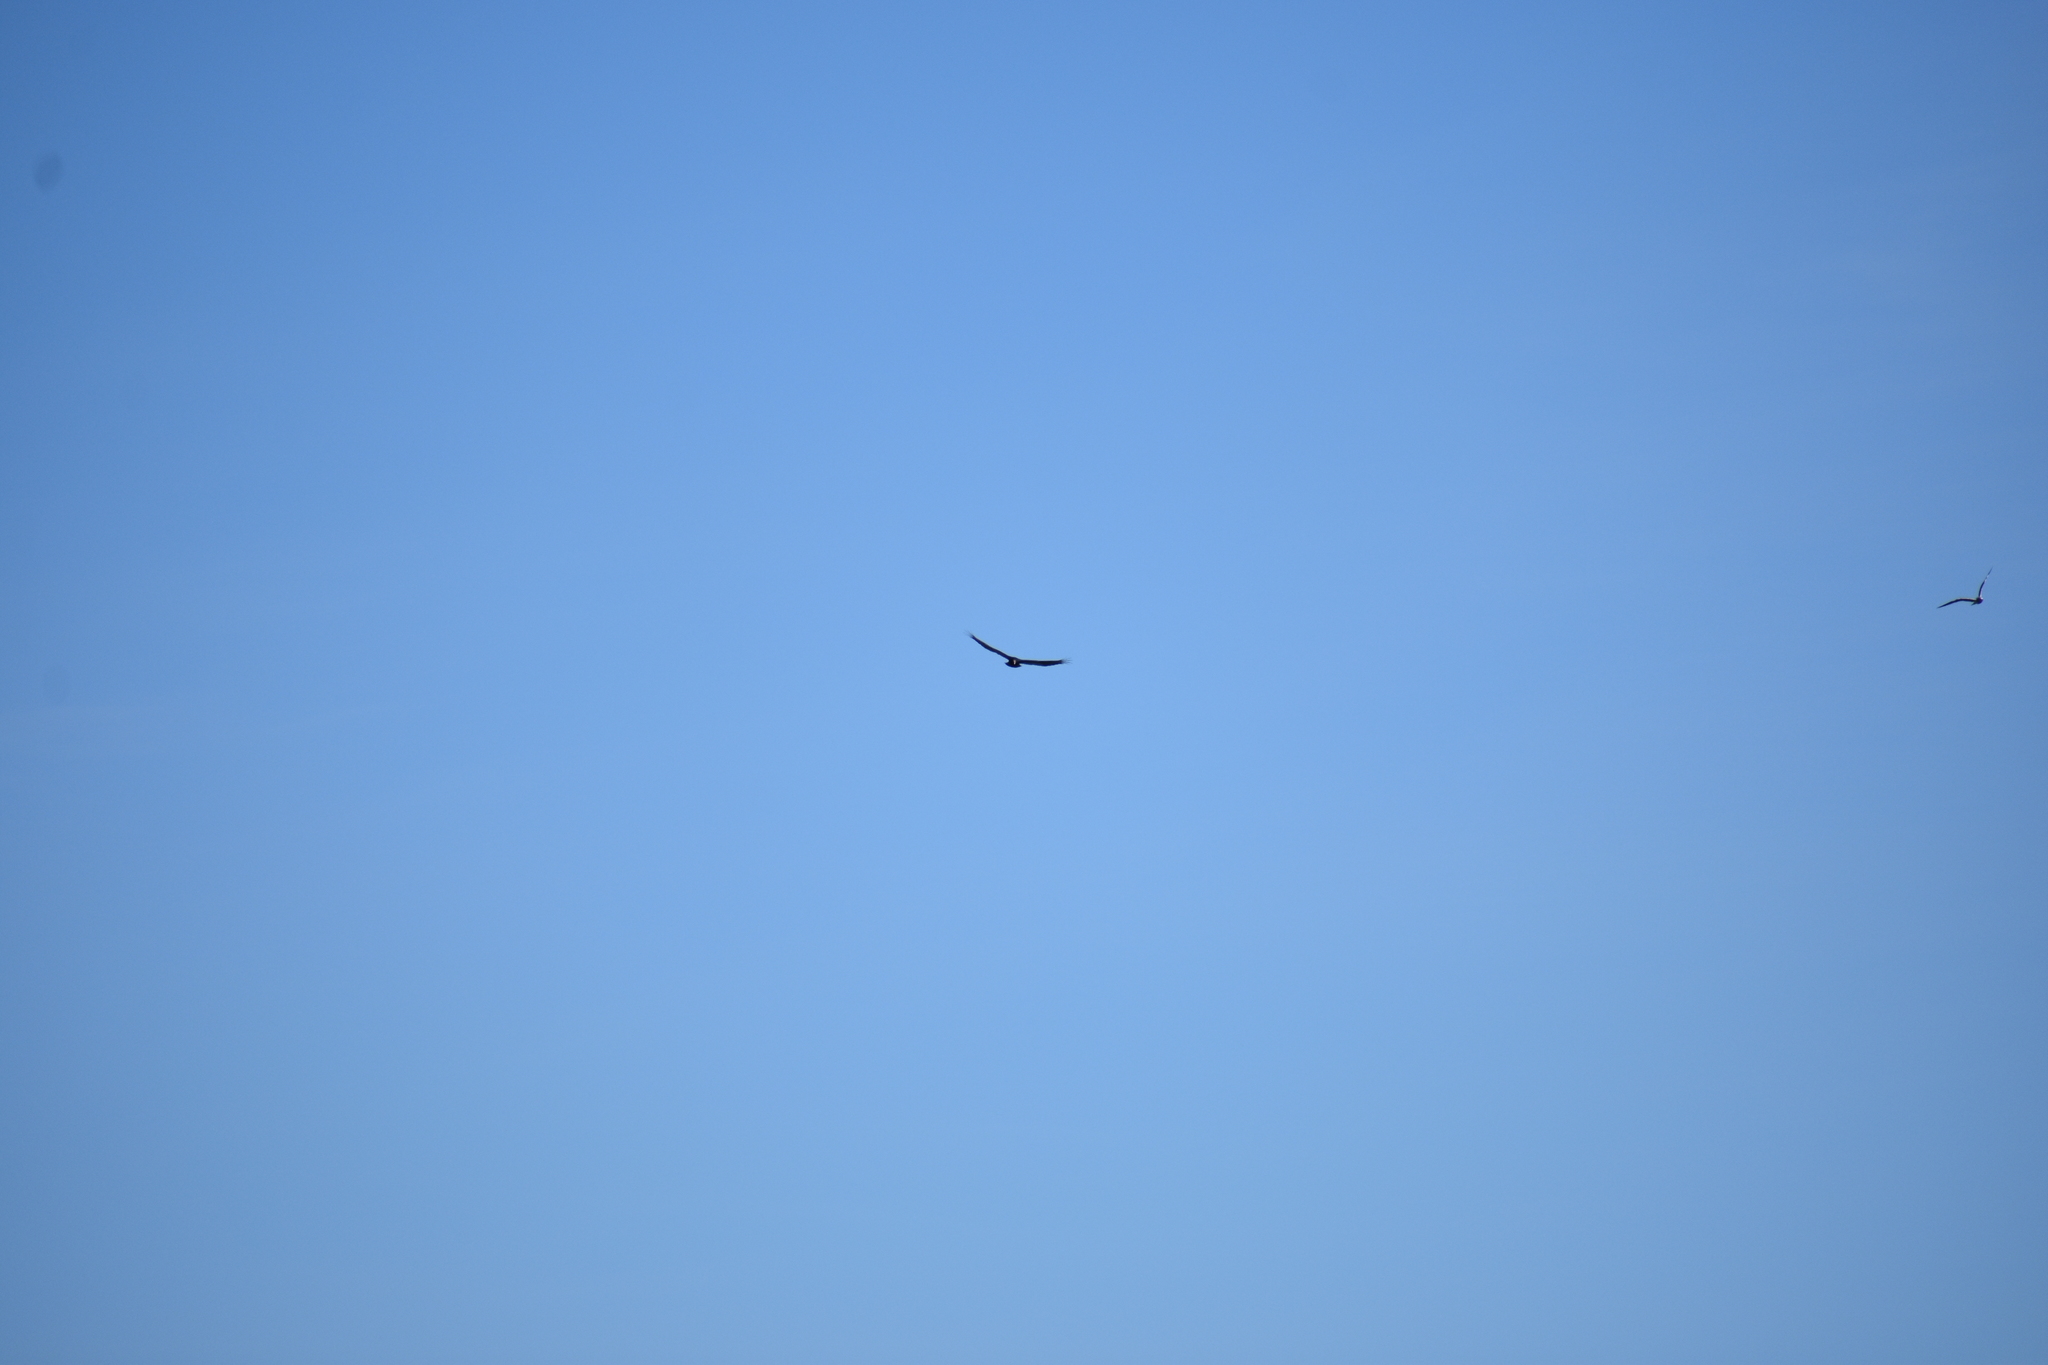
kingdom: Animalia
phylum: Chordata
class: Aves
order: Accipitriformes
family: Cathartidae
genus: Cathartes
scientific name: Cathartes aura
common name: Turkey vulture
